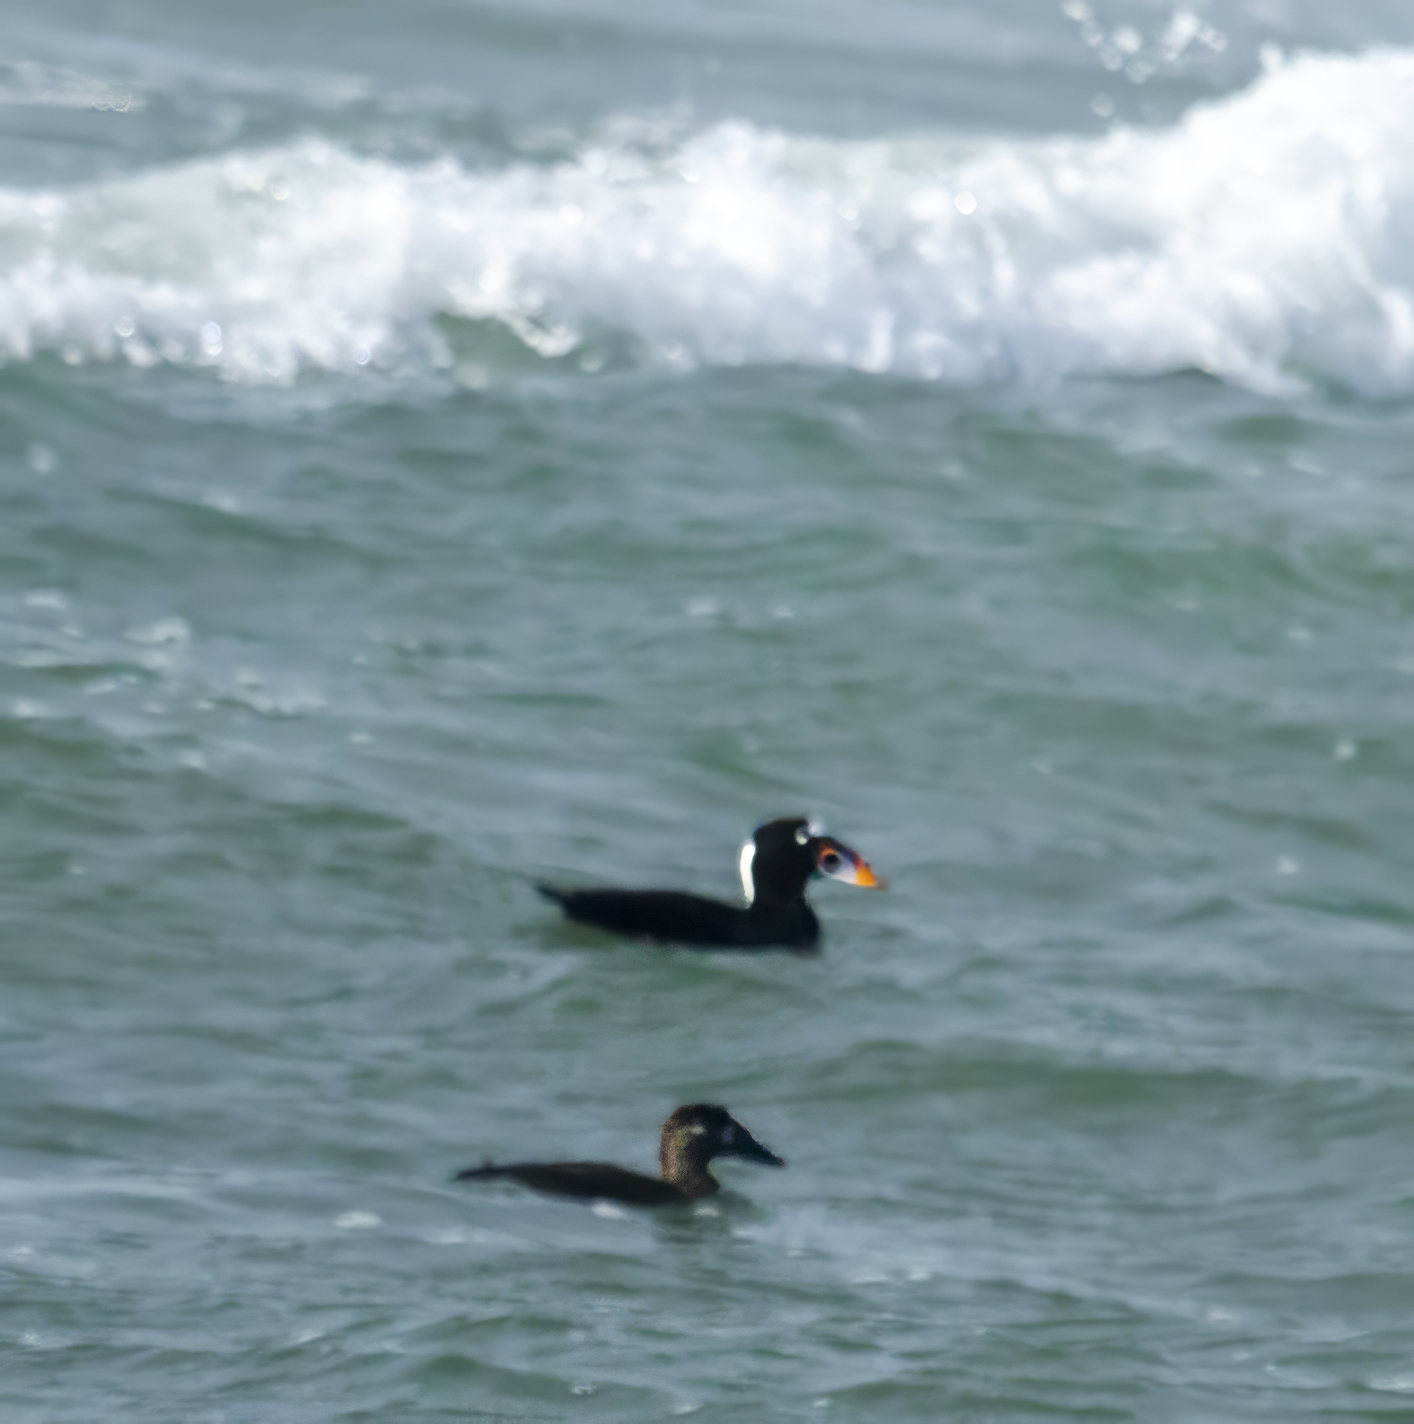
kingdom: Animalia
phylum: Chordata
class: Aves
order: Anseriformes
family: Anatidae
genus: Melanitta
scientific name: Melanitta perspicillata
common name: Surf scoter
